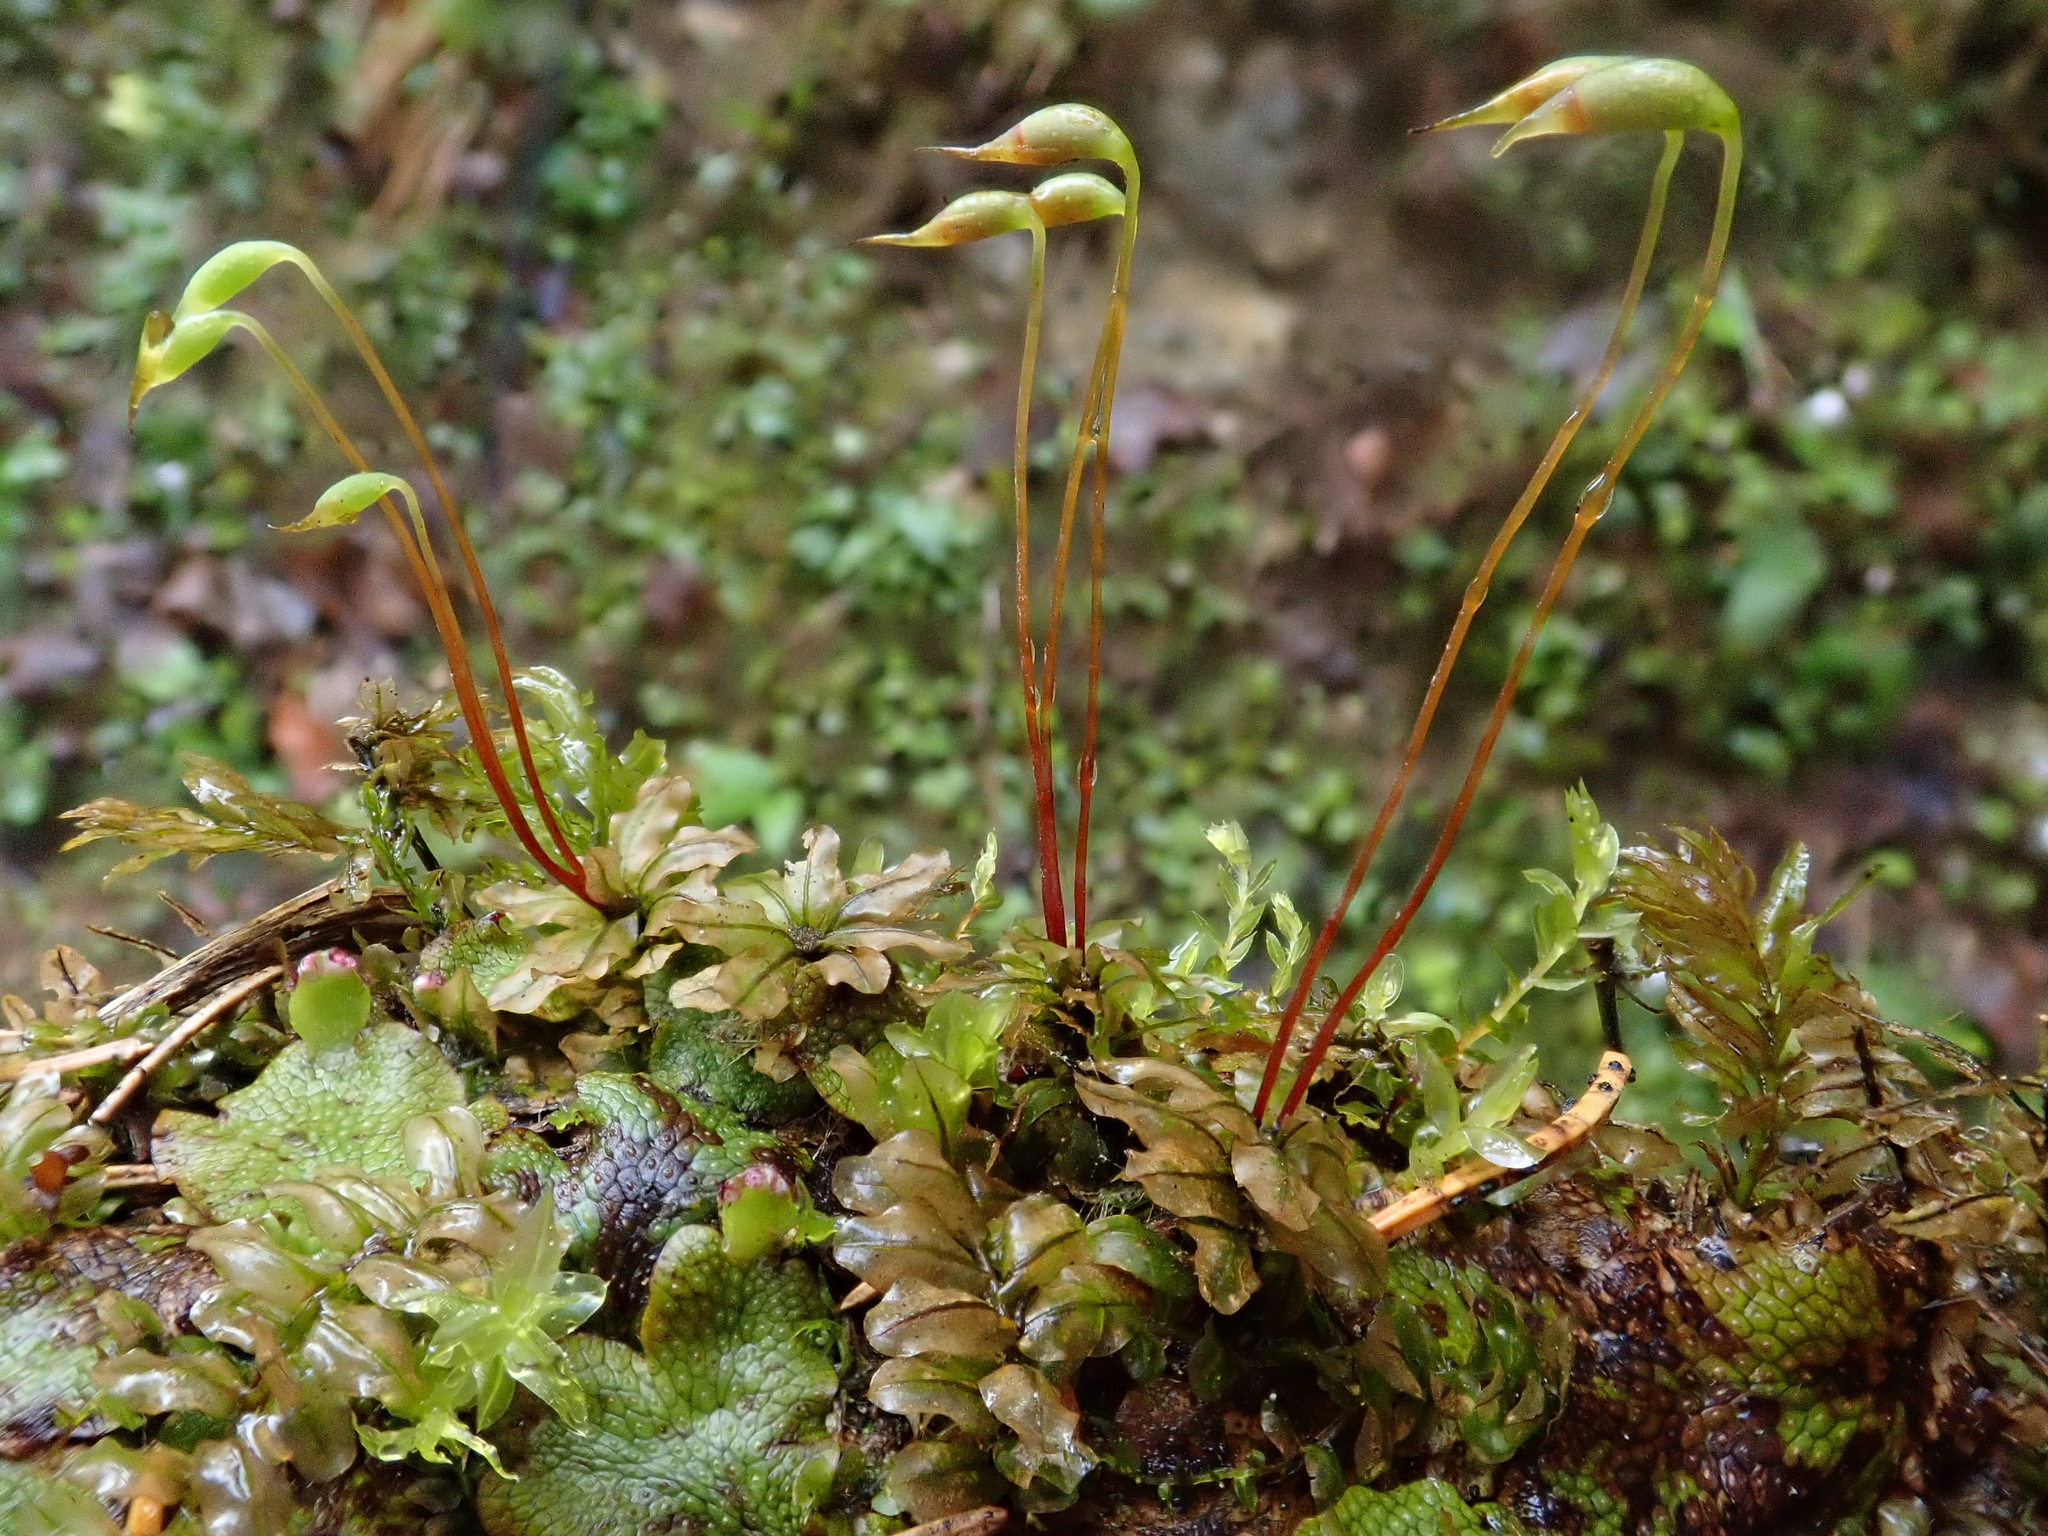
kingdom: Plantae
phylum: Bryophyta
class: Bryopsida
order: Bryales
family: Mniaceae
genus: Plagiomnium
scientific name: Plagiomnium rostratum
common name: Long-beaked leafy moss
